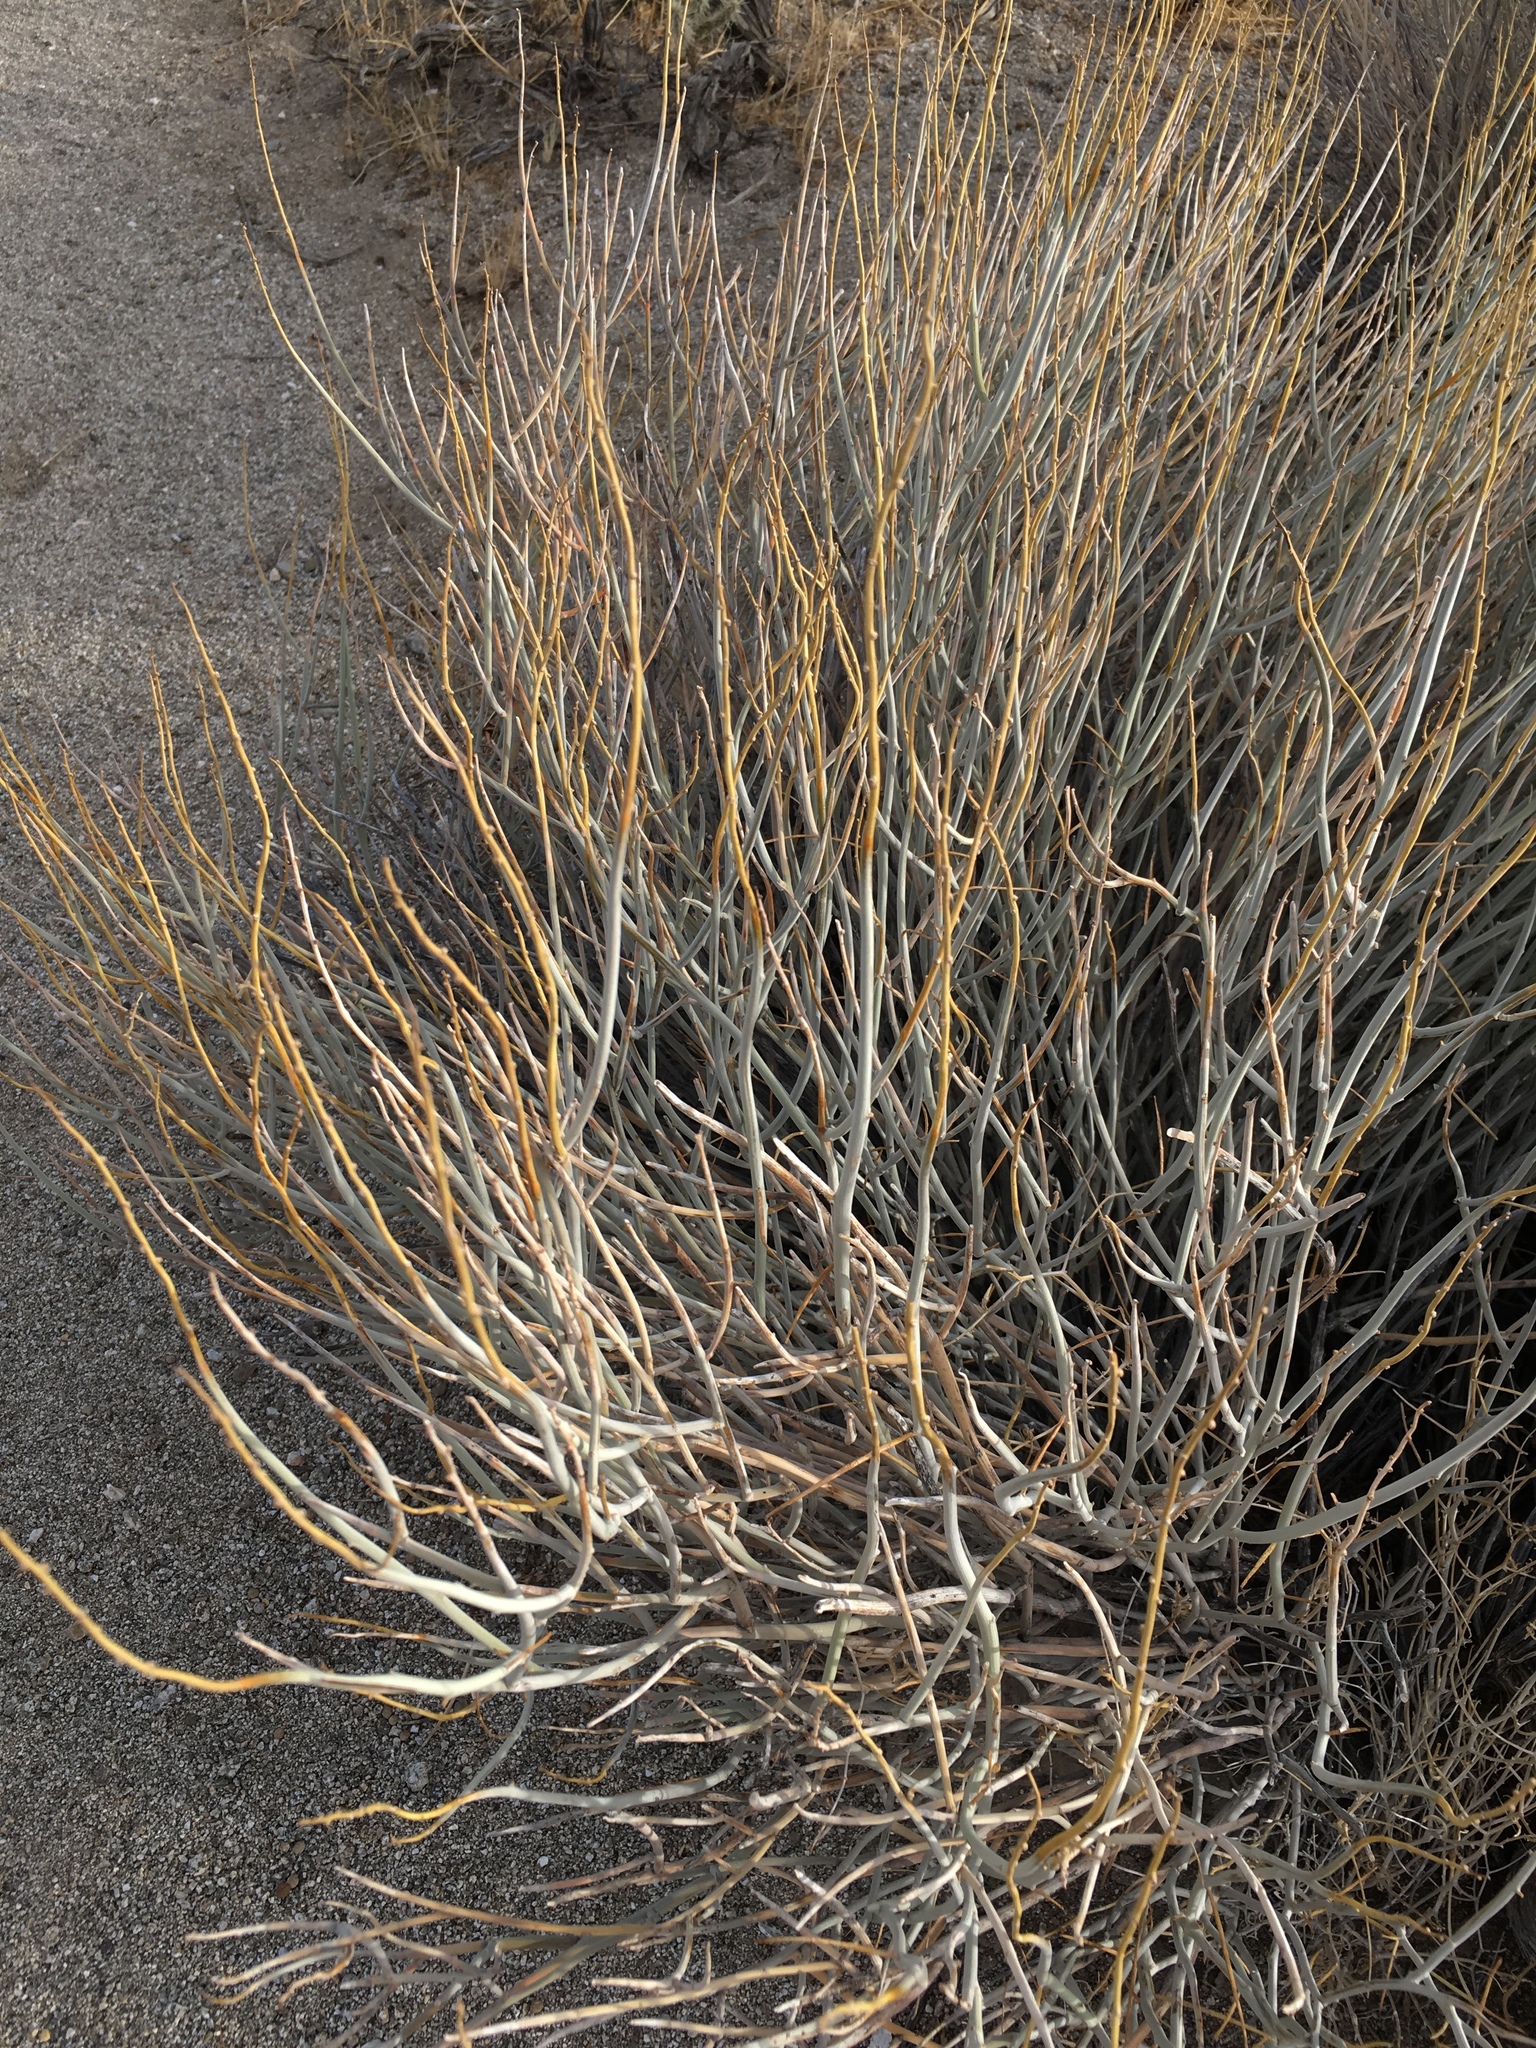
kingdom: Plantae
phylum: Tracheophyta
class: Magnoliopsida
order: Fabales
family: Fabaceae
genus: Senna
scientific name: Senna armata
